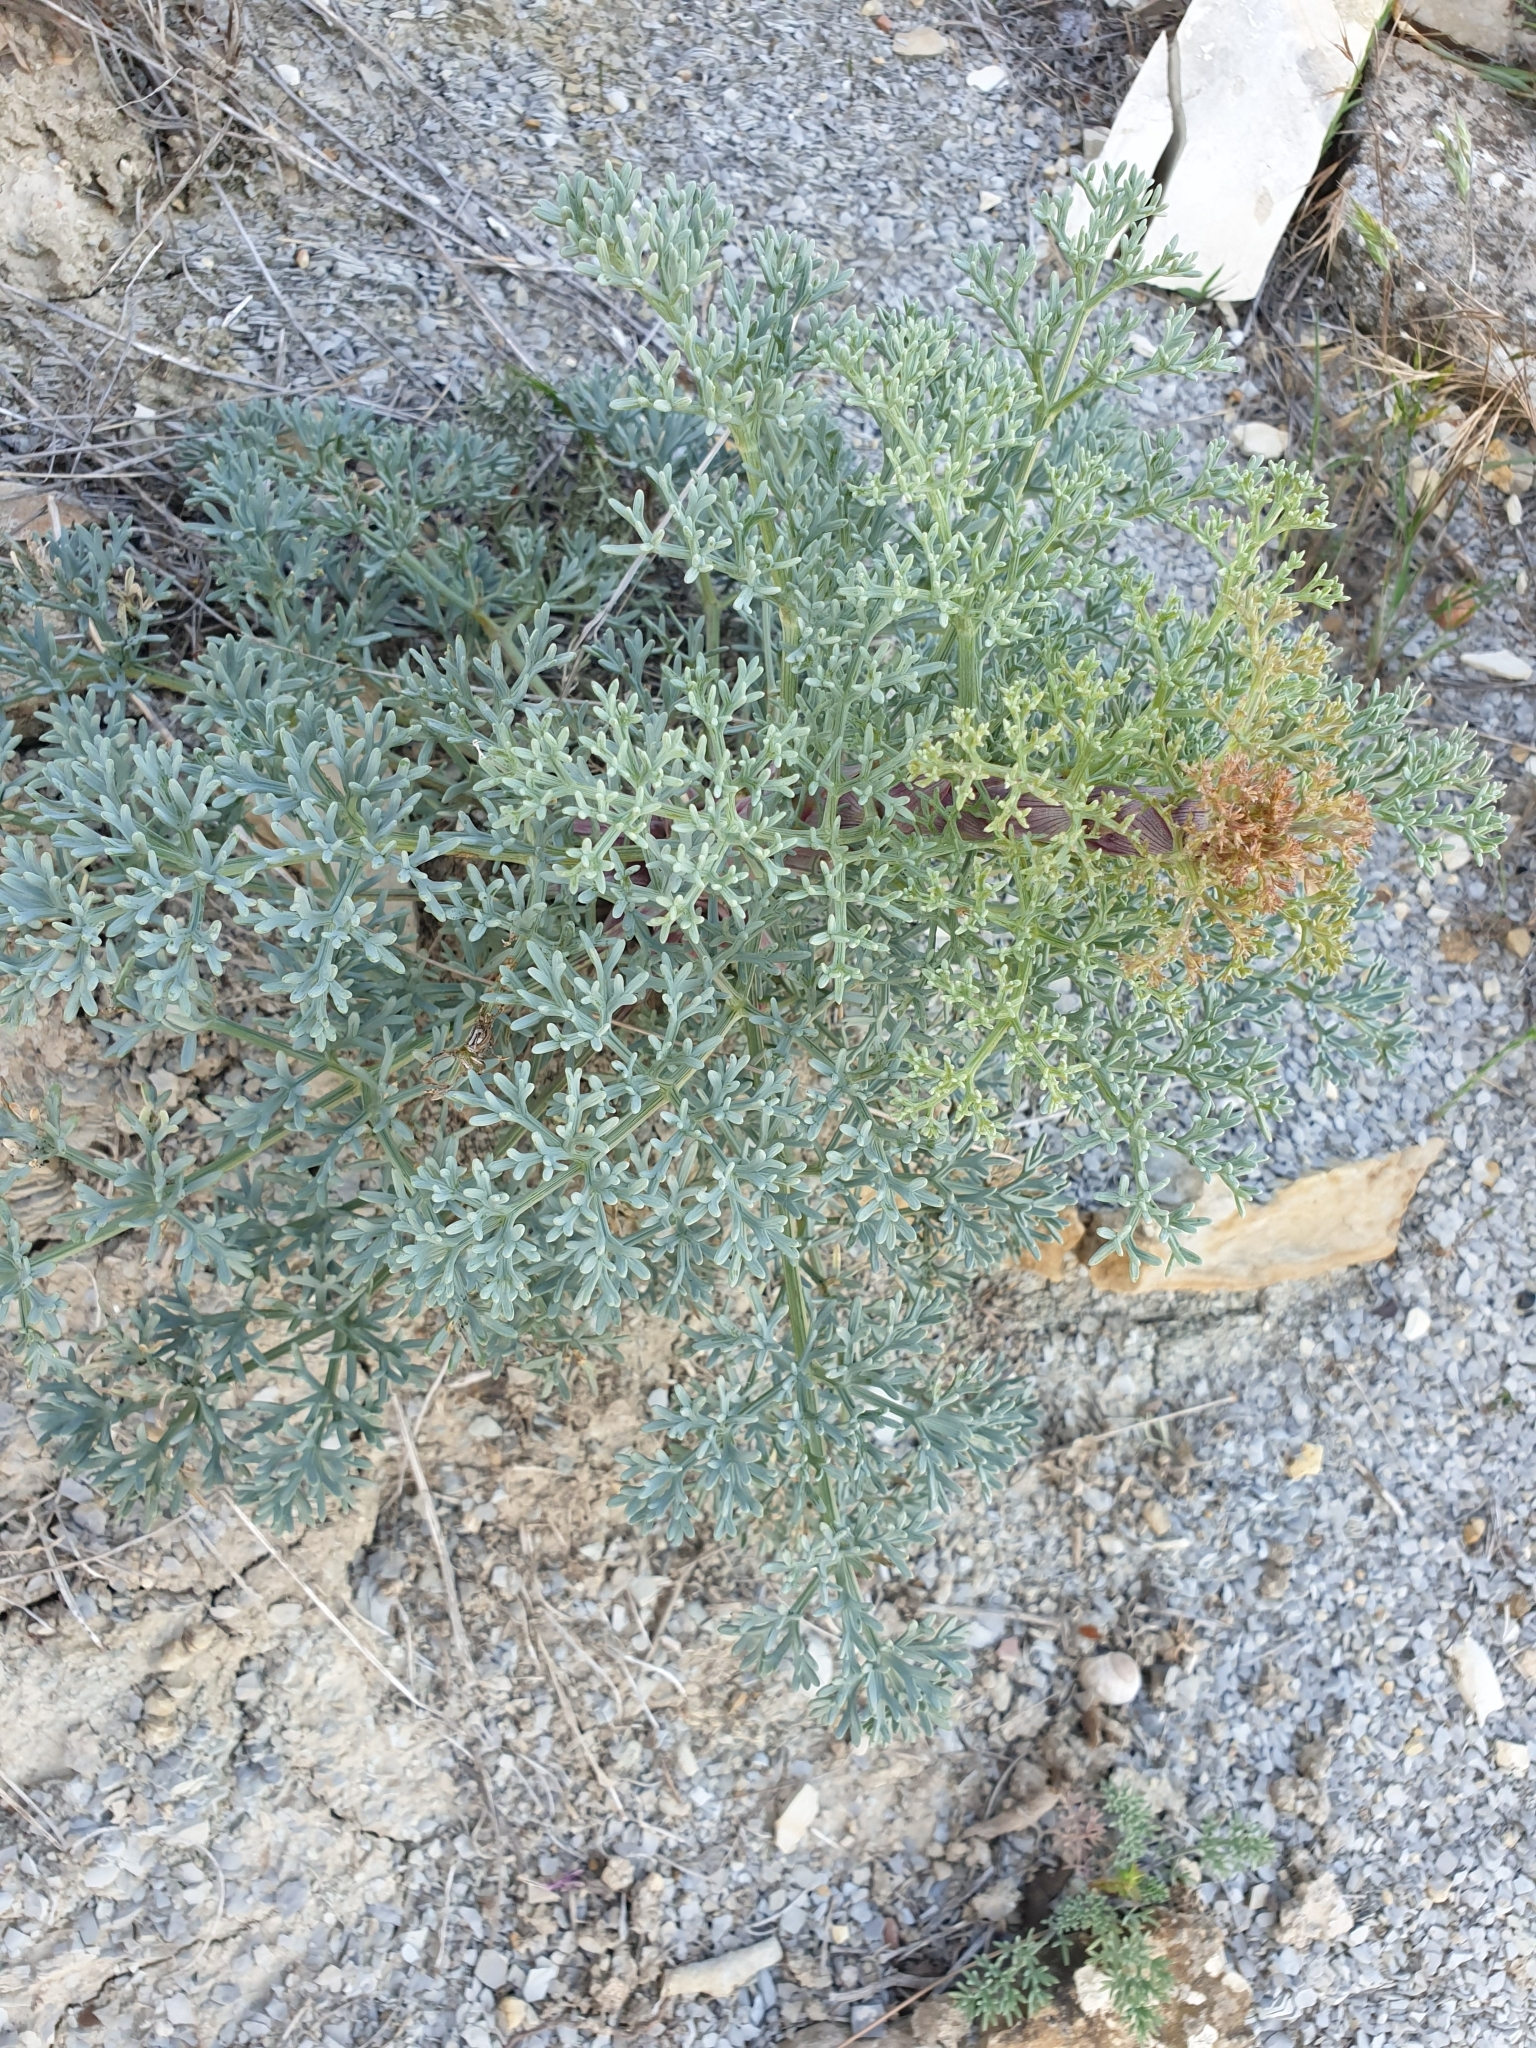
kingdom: Plantae
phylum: Tracheophyta
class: Magnoliopsida
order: Apiales
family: Apiaceae
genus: Seseli
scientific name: Seseli ponticum
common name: Pontic seseli
